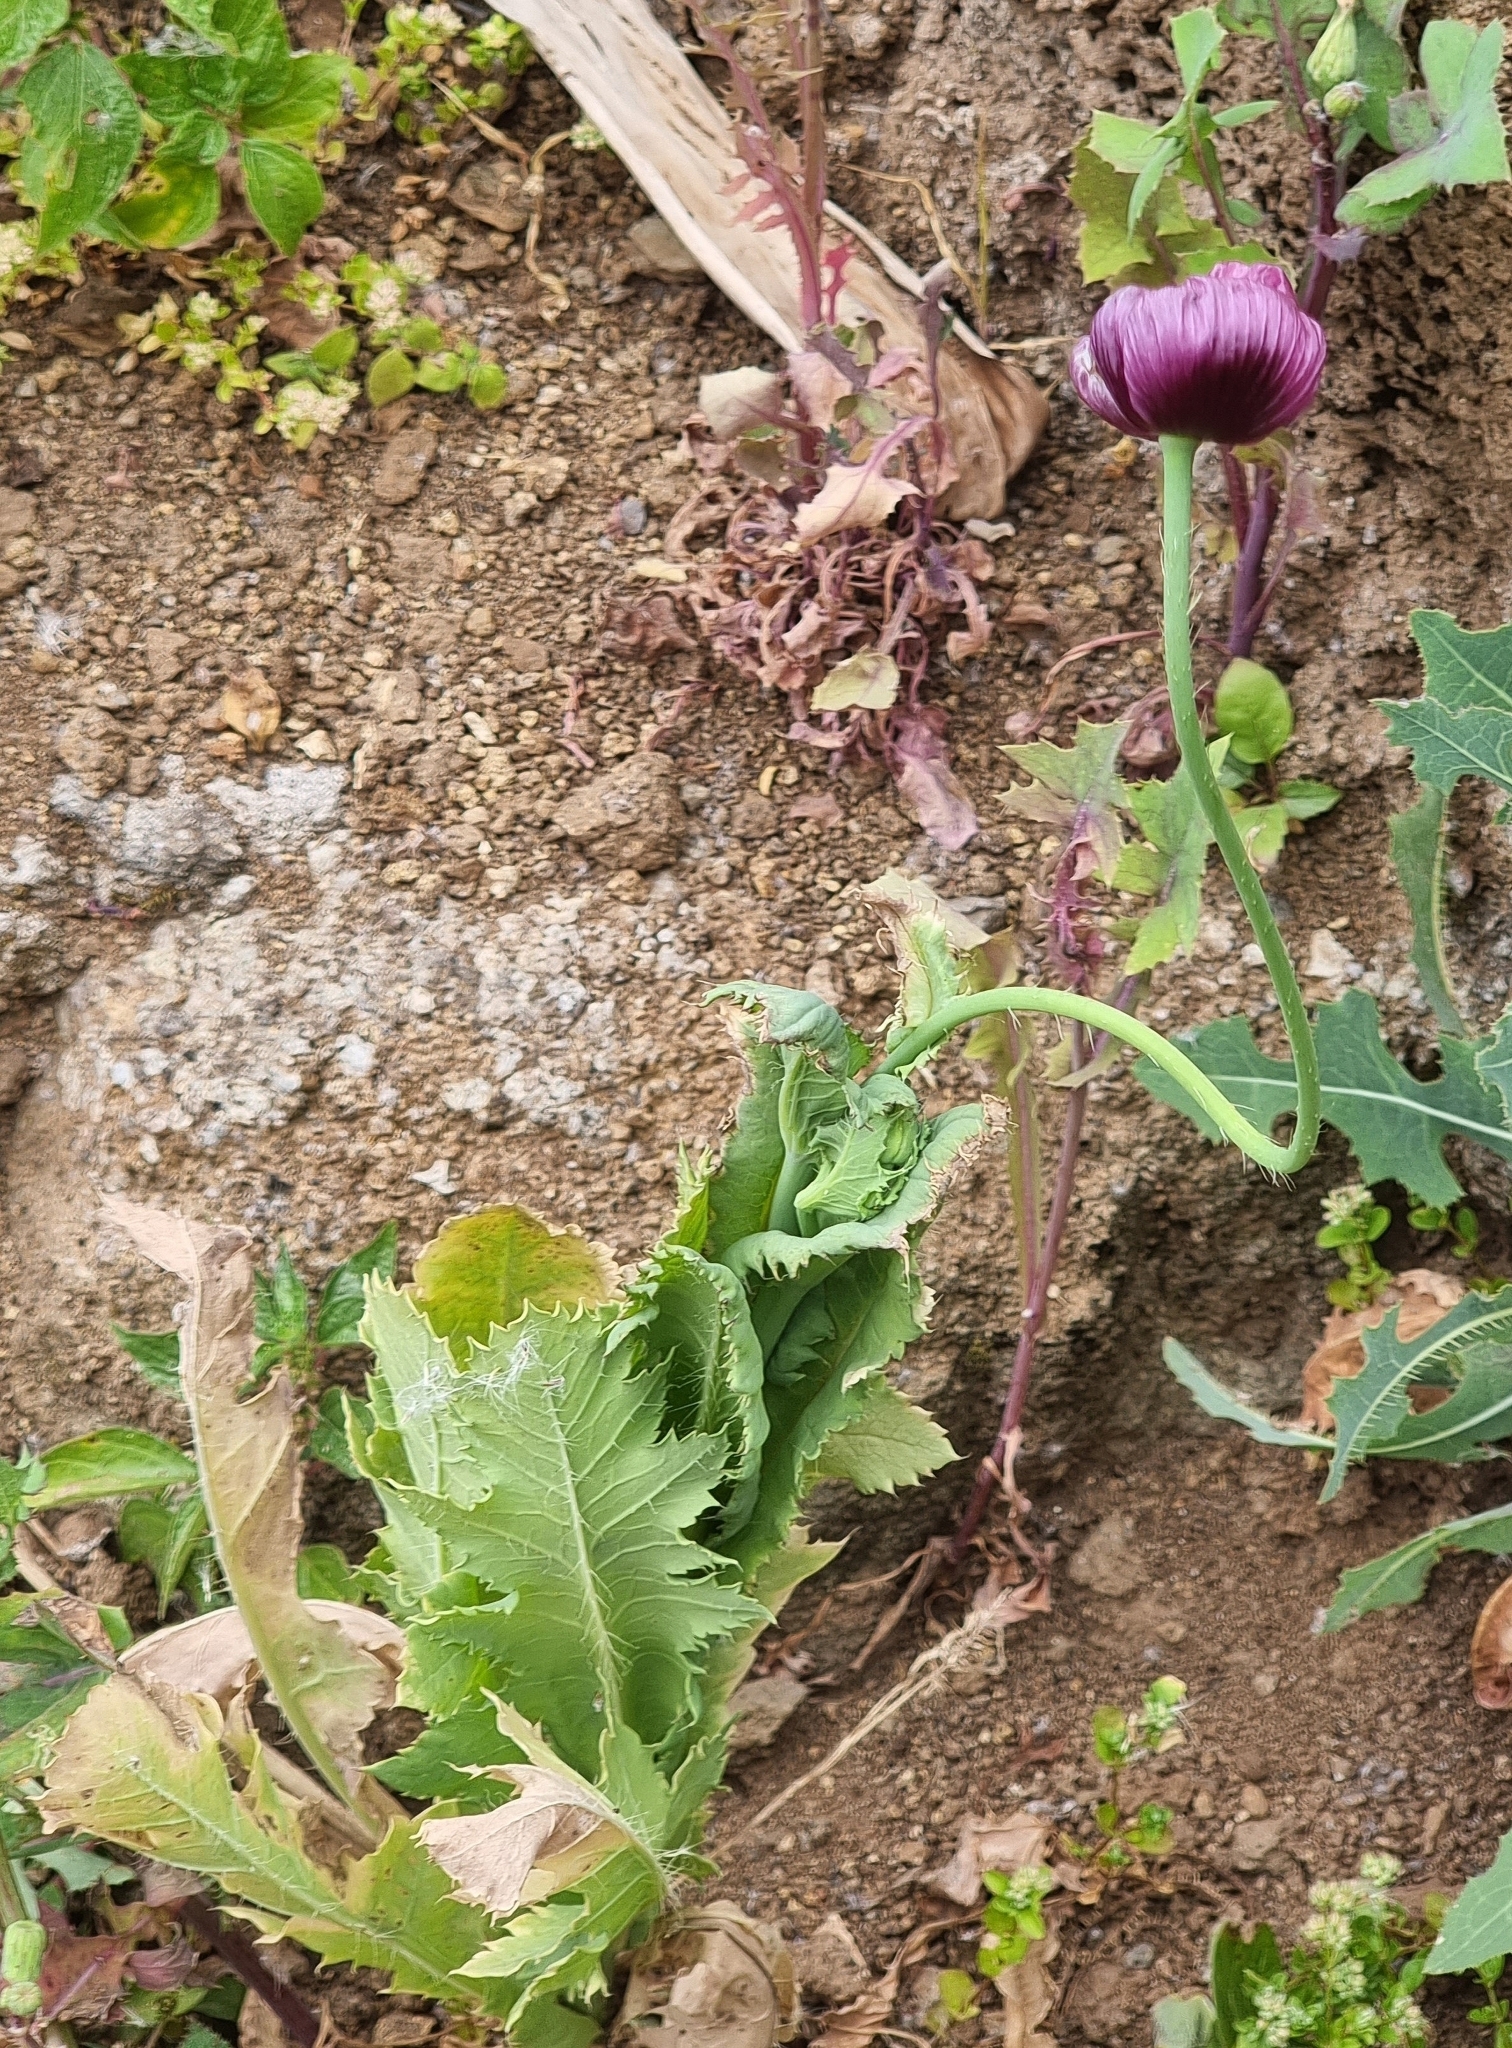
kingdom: Plantae
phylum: Tracheophyta
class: Magnoliopsida
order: Ranunculales
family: Papaveraceae
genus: Papaver
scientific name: Papaver setigerum
